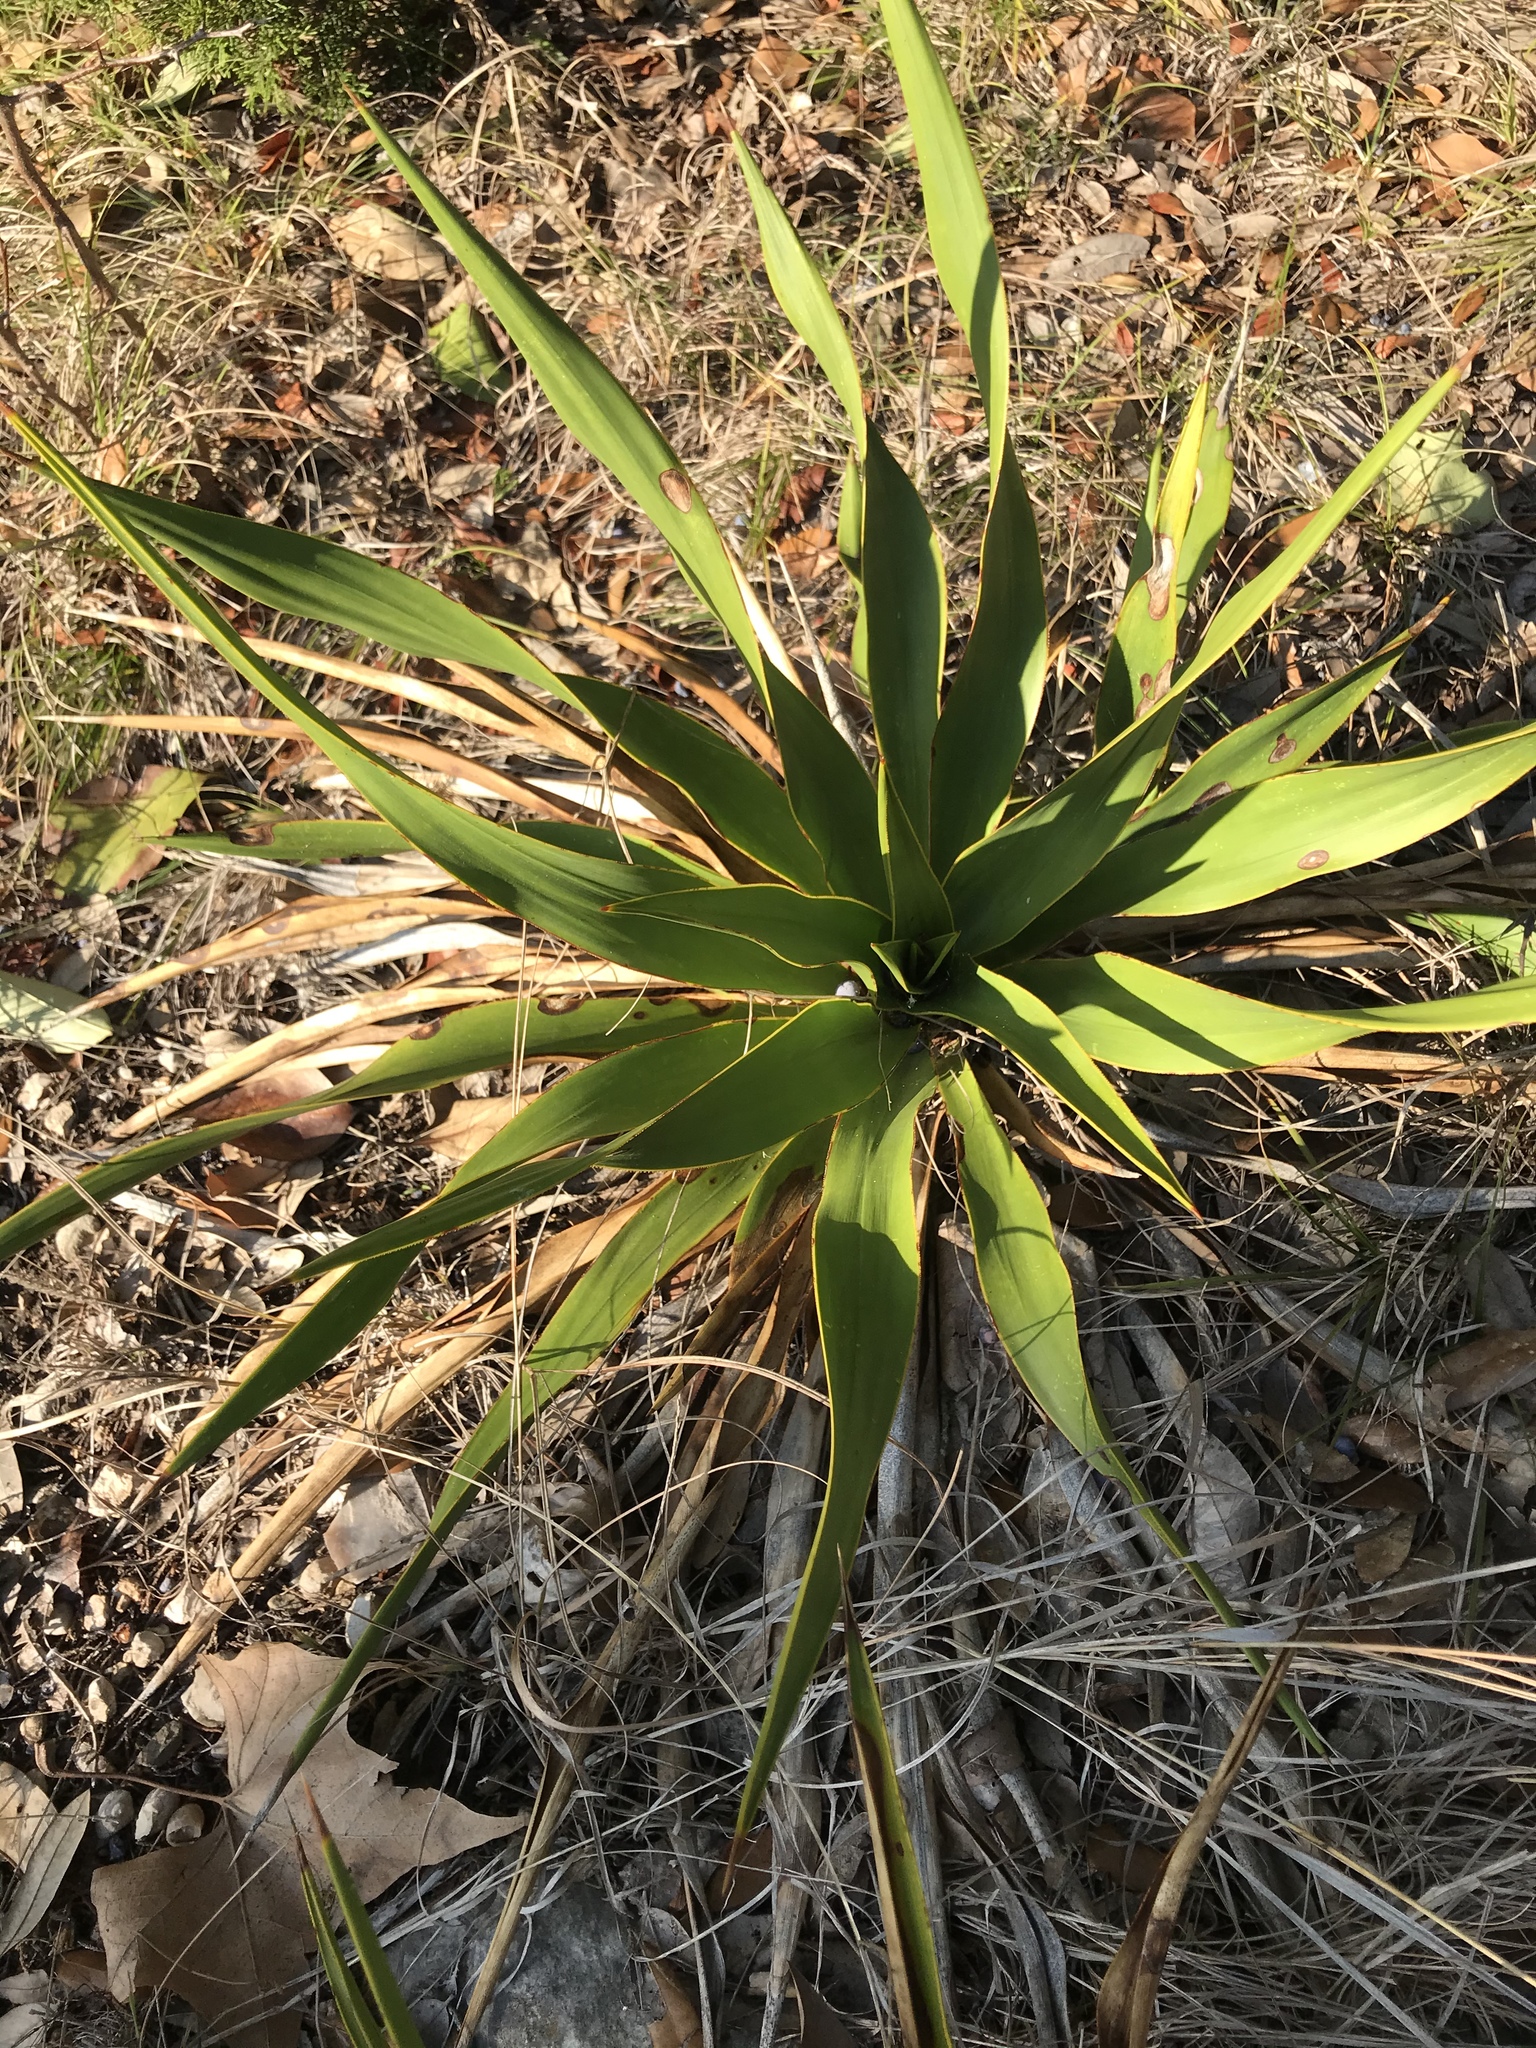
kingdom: Plantae
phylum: Tracheophyta
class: Liliopsida
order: Asparagales
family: Asparagaceae
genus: Yucca
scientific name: Yucca rupicola
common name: Twisted-leaf spanish-dagger
